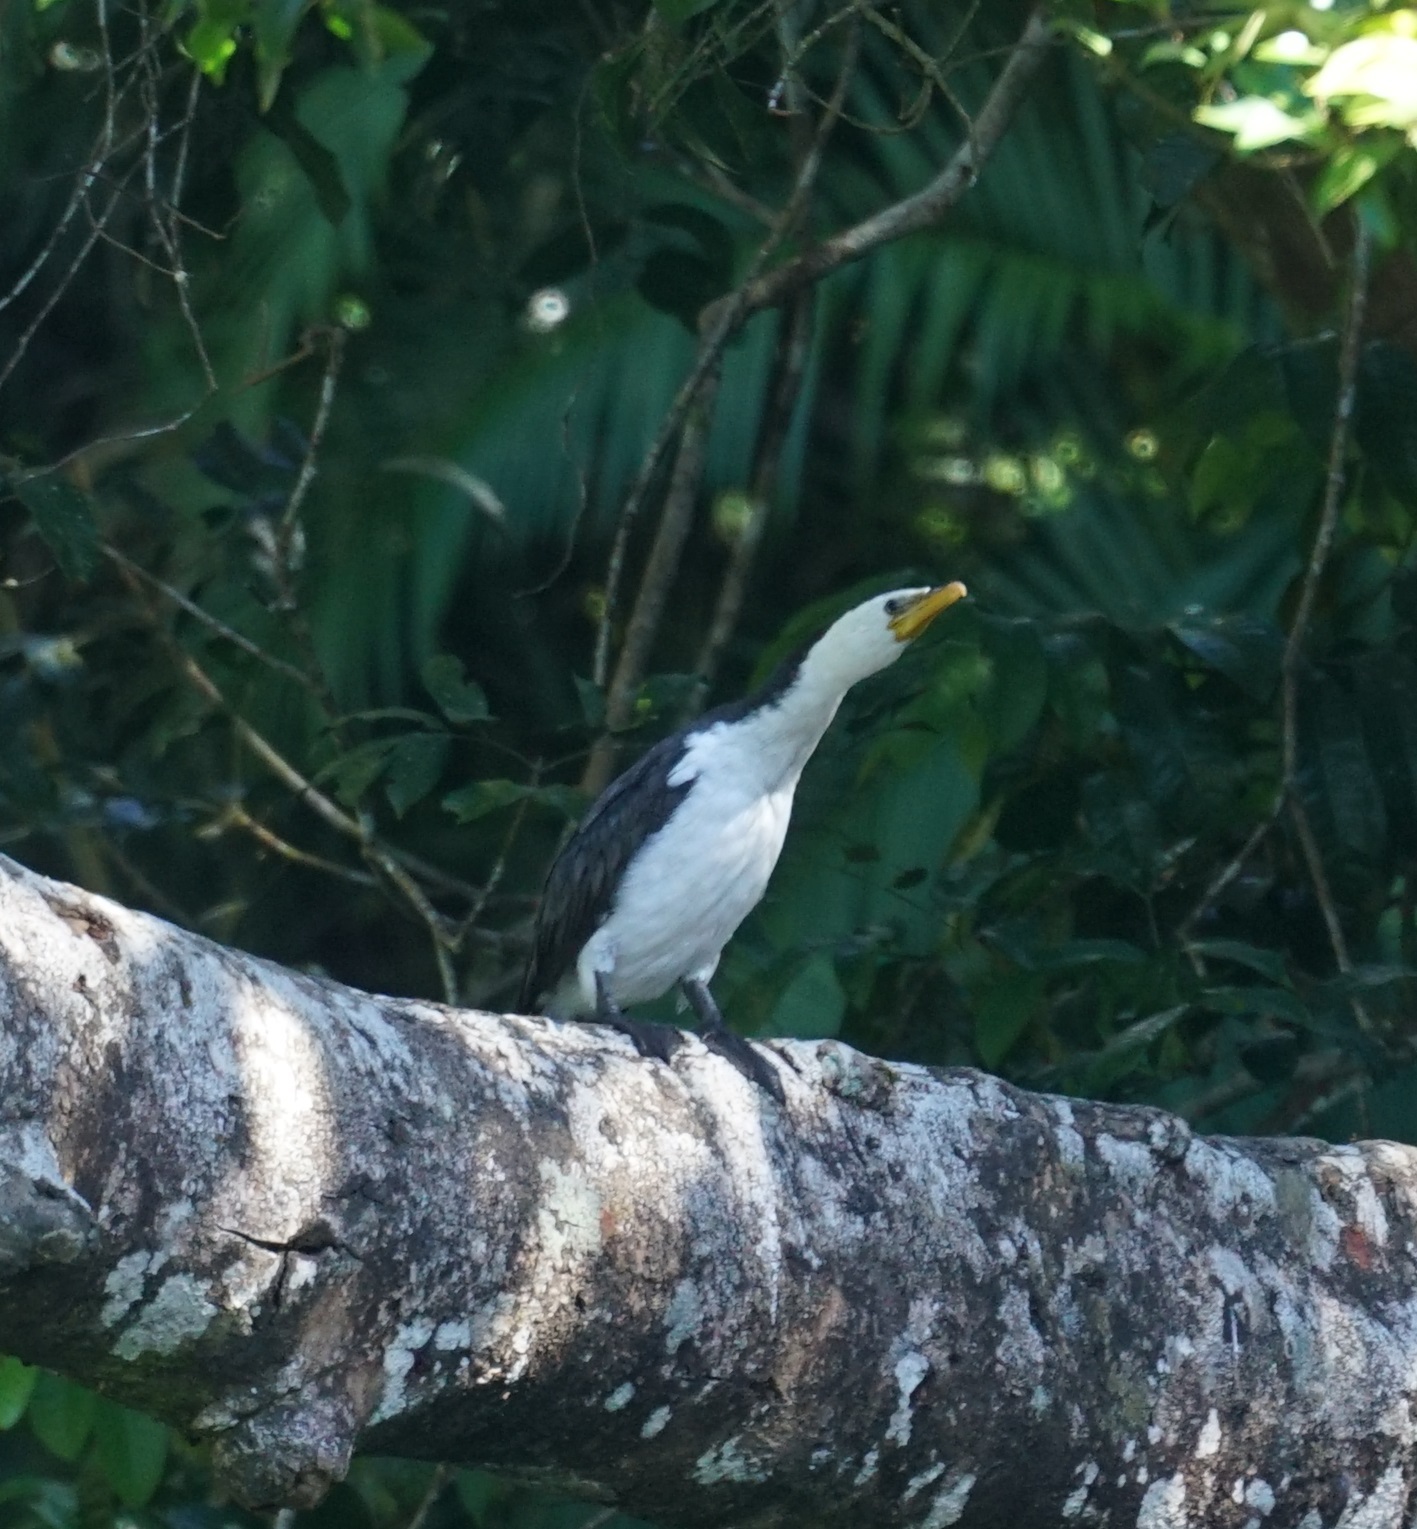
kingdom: Animalia
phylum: Chordata
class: Aves
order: Suliformes
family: Phalacrocoracidae
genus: Microcarbo
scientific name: Microcarbo melanoleucos
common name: Little pied cormorant
